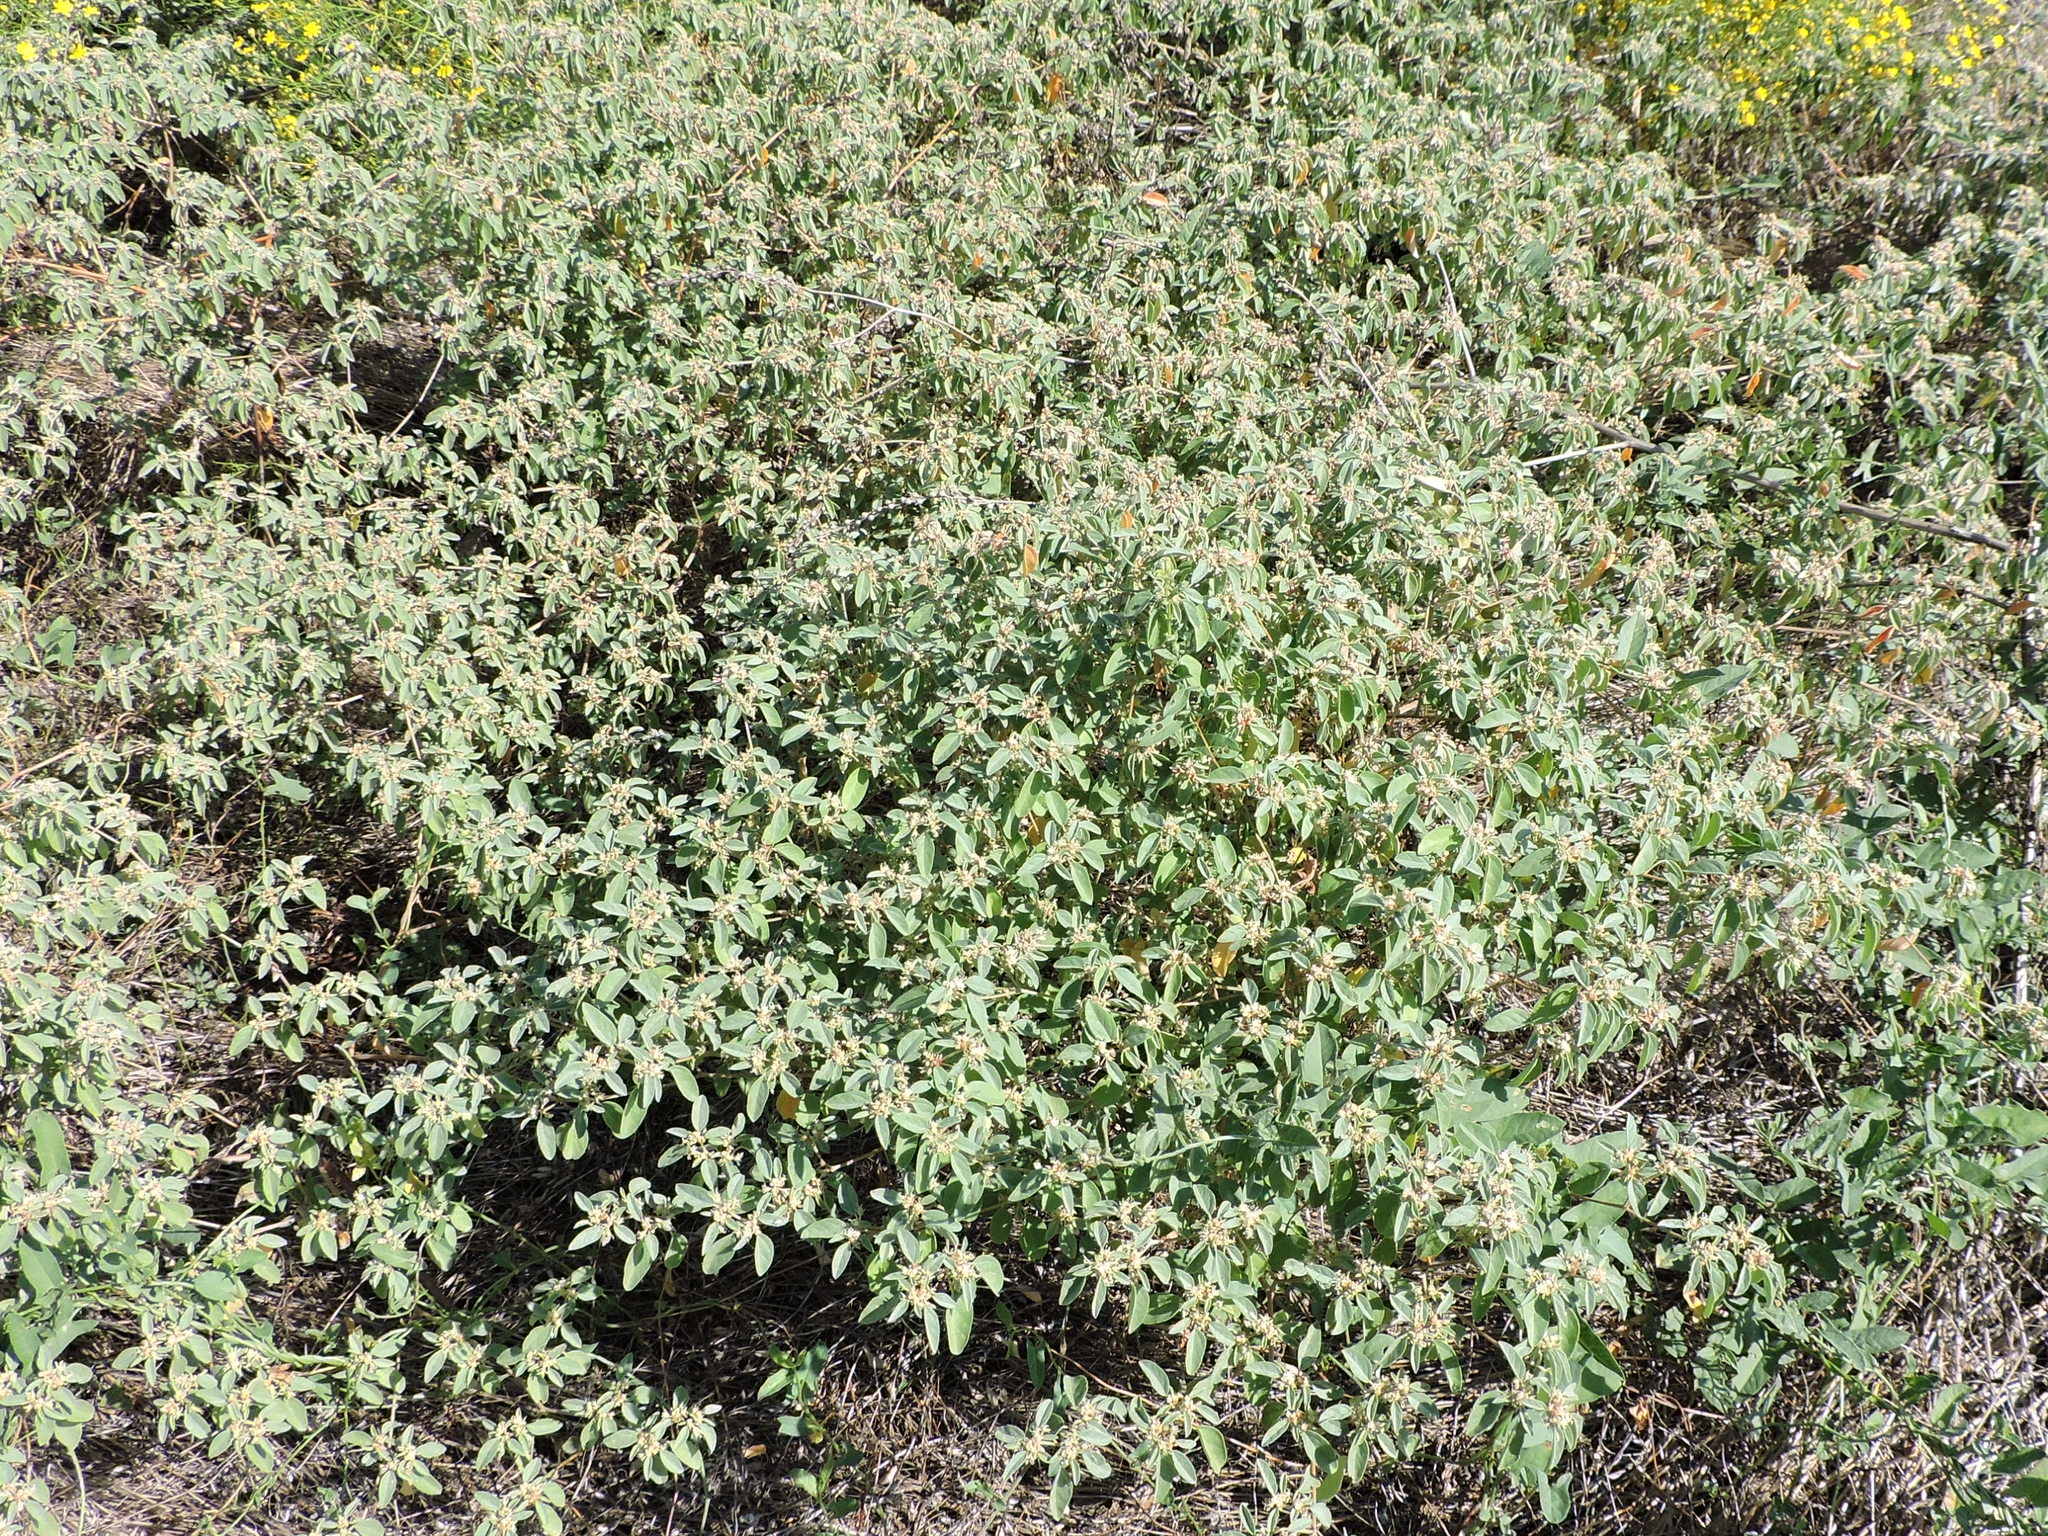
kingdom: Plantae
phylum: Tracheophyta
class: Magnoliopsida
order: Malpighiales
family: Euphorbiaceae
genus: Croton
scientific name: Croton monanthogynus
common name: One-seed croton
